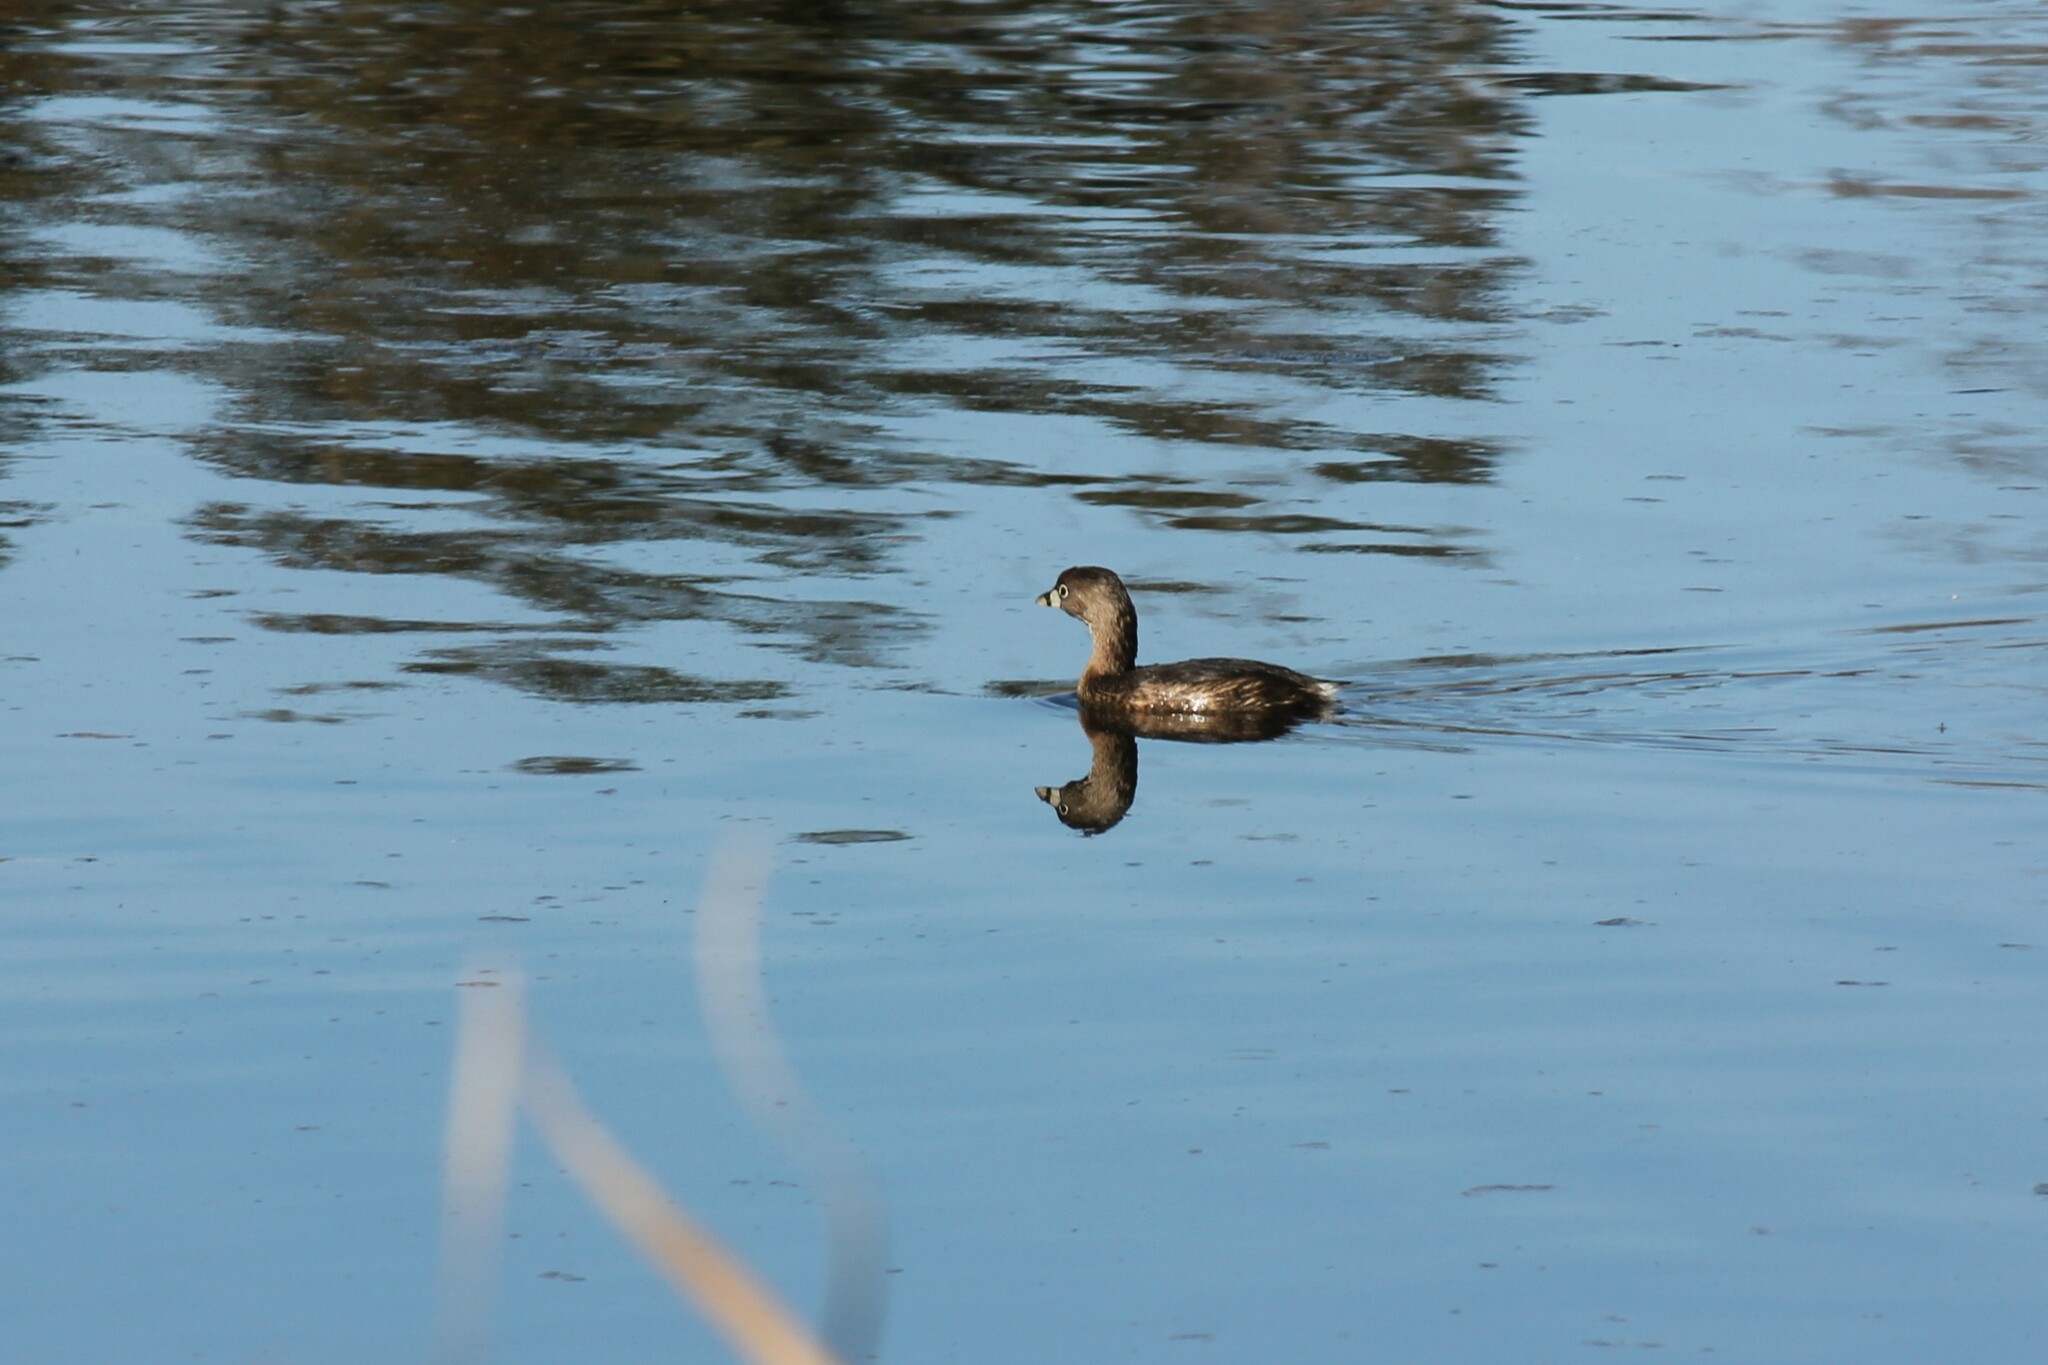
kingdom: Animalia
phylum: Chordata
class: Aves
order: Podicipediformes
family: Podicipedidae
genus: Podilymbus
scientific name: Podilymbus podiceps
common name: Pied-billed grebe
